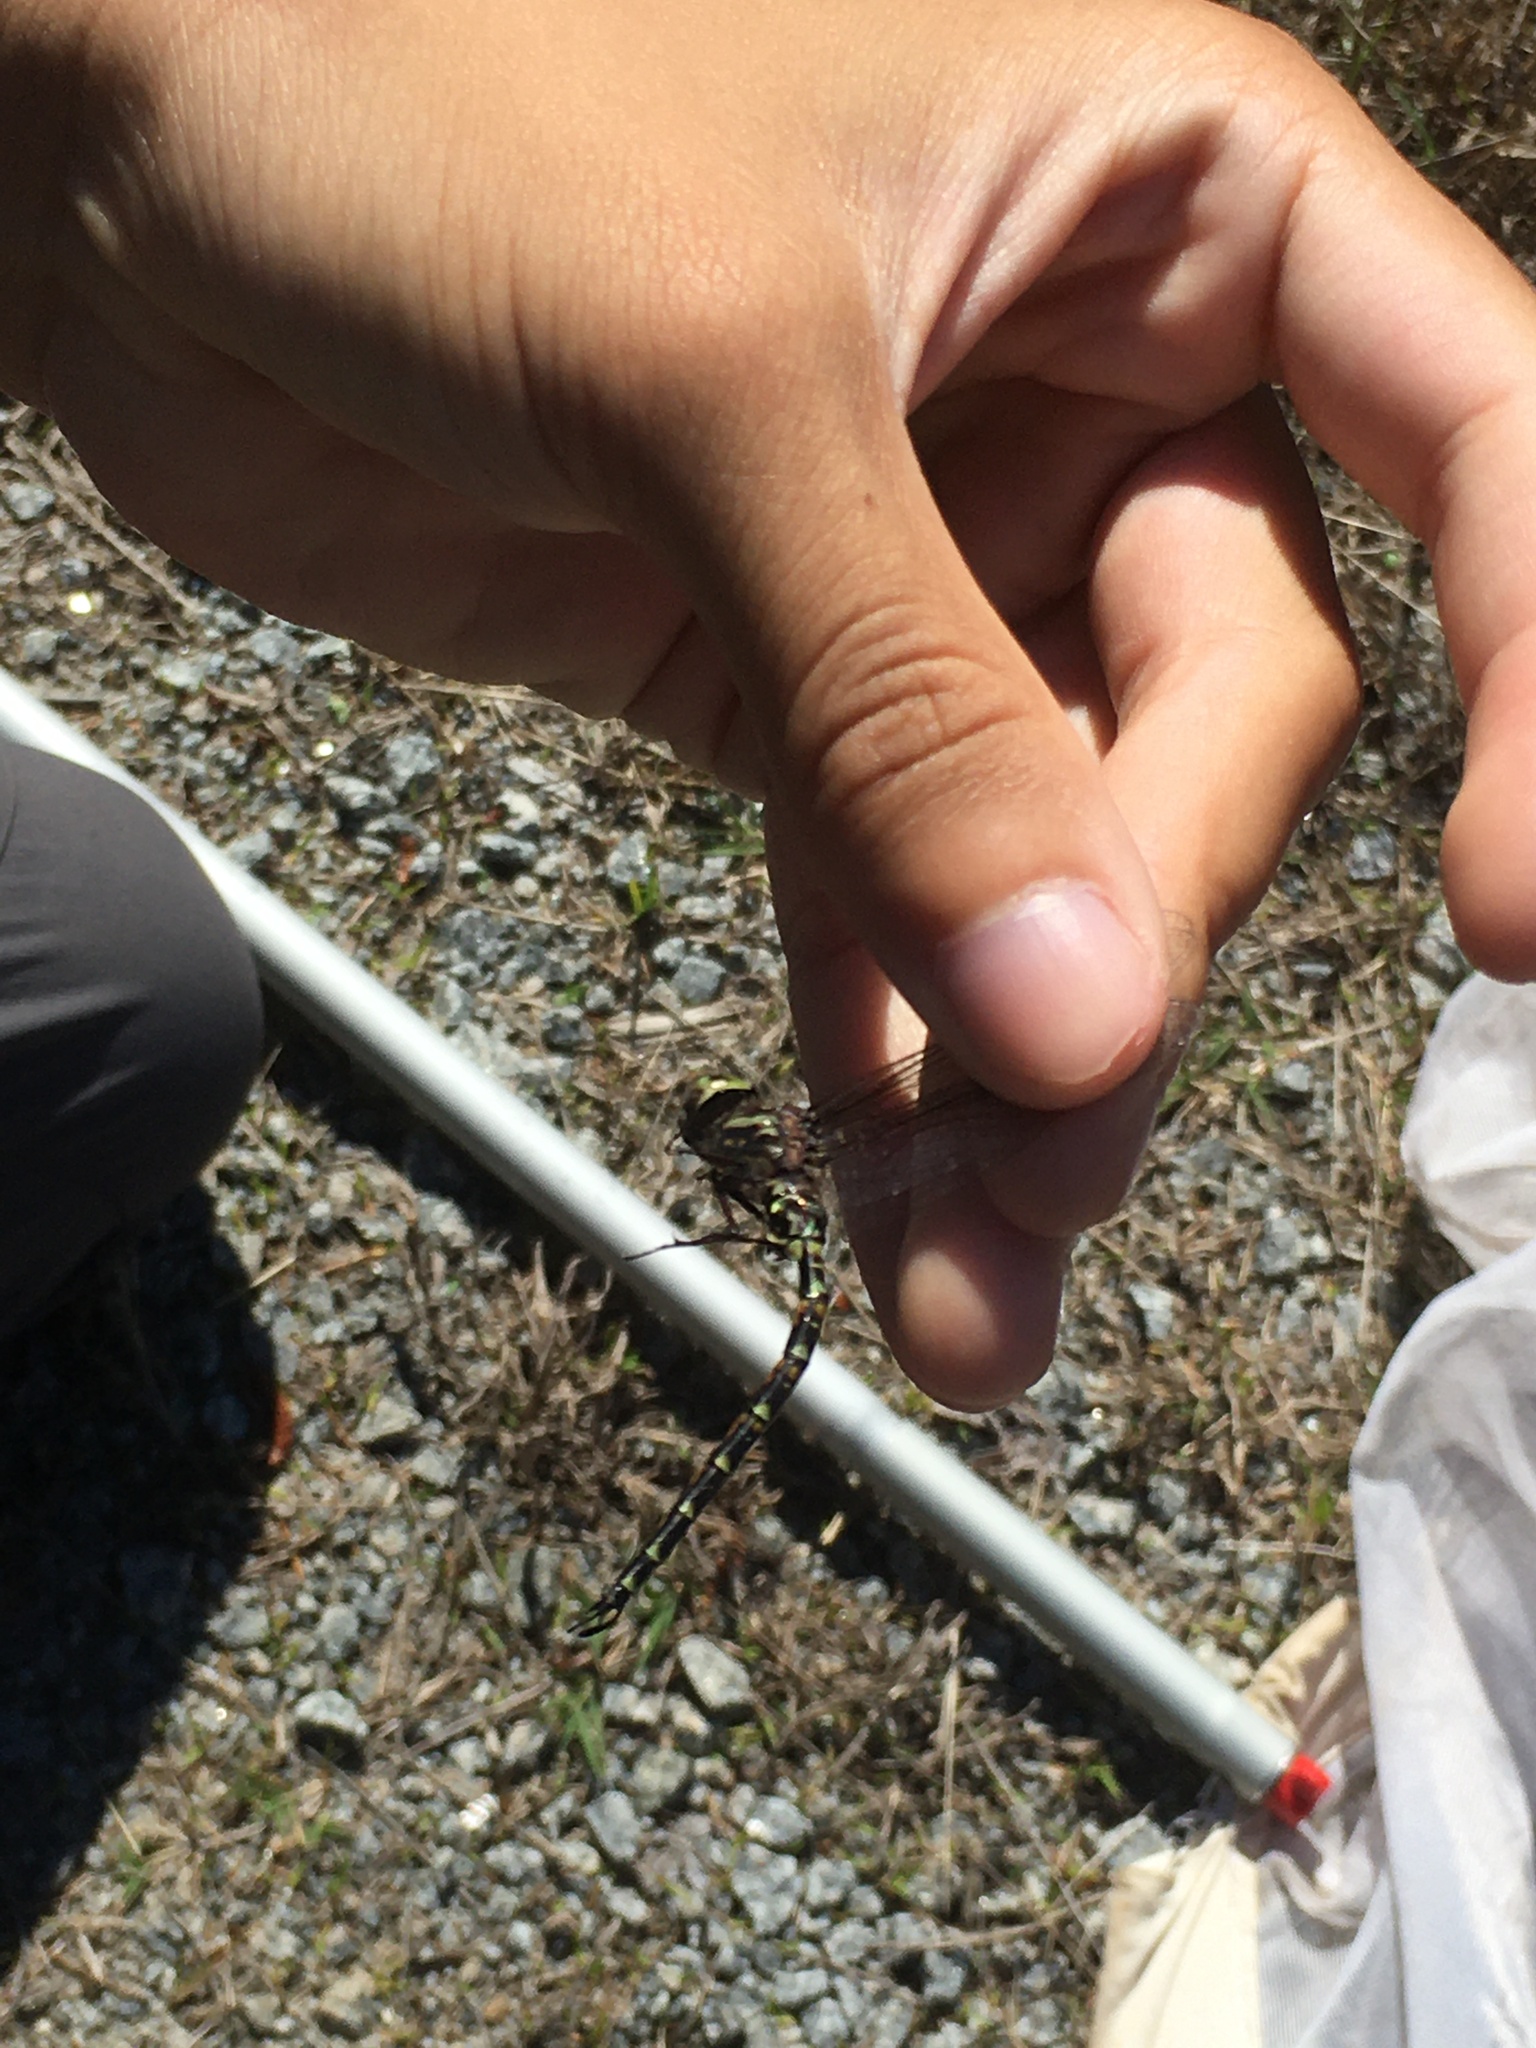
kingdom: Animalia
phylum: Arthropoda
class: Insecta
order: Odonata
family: Aeshnidae
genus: Gomphaeschna
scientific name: Gomphaeschna furcillata
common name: Harlequin darner
